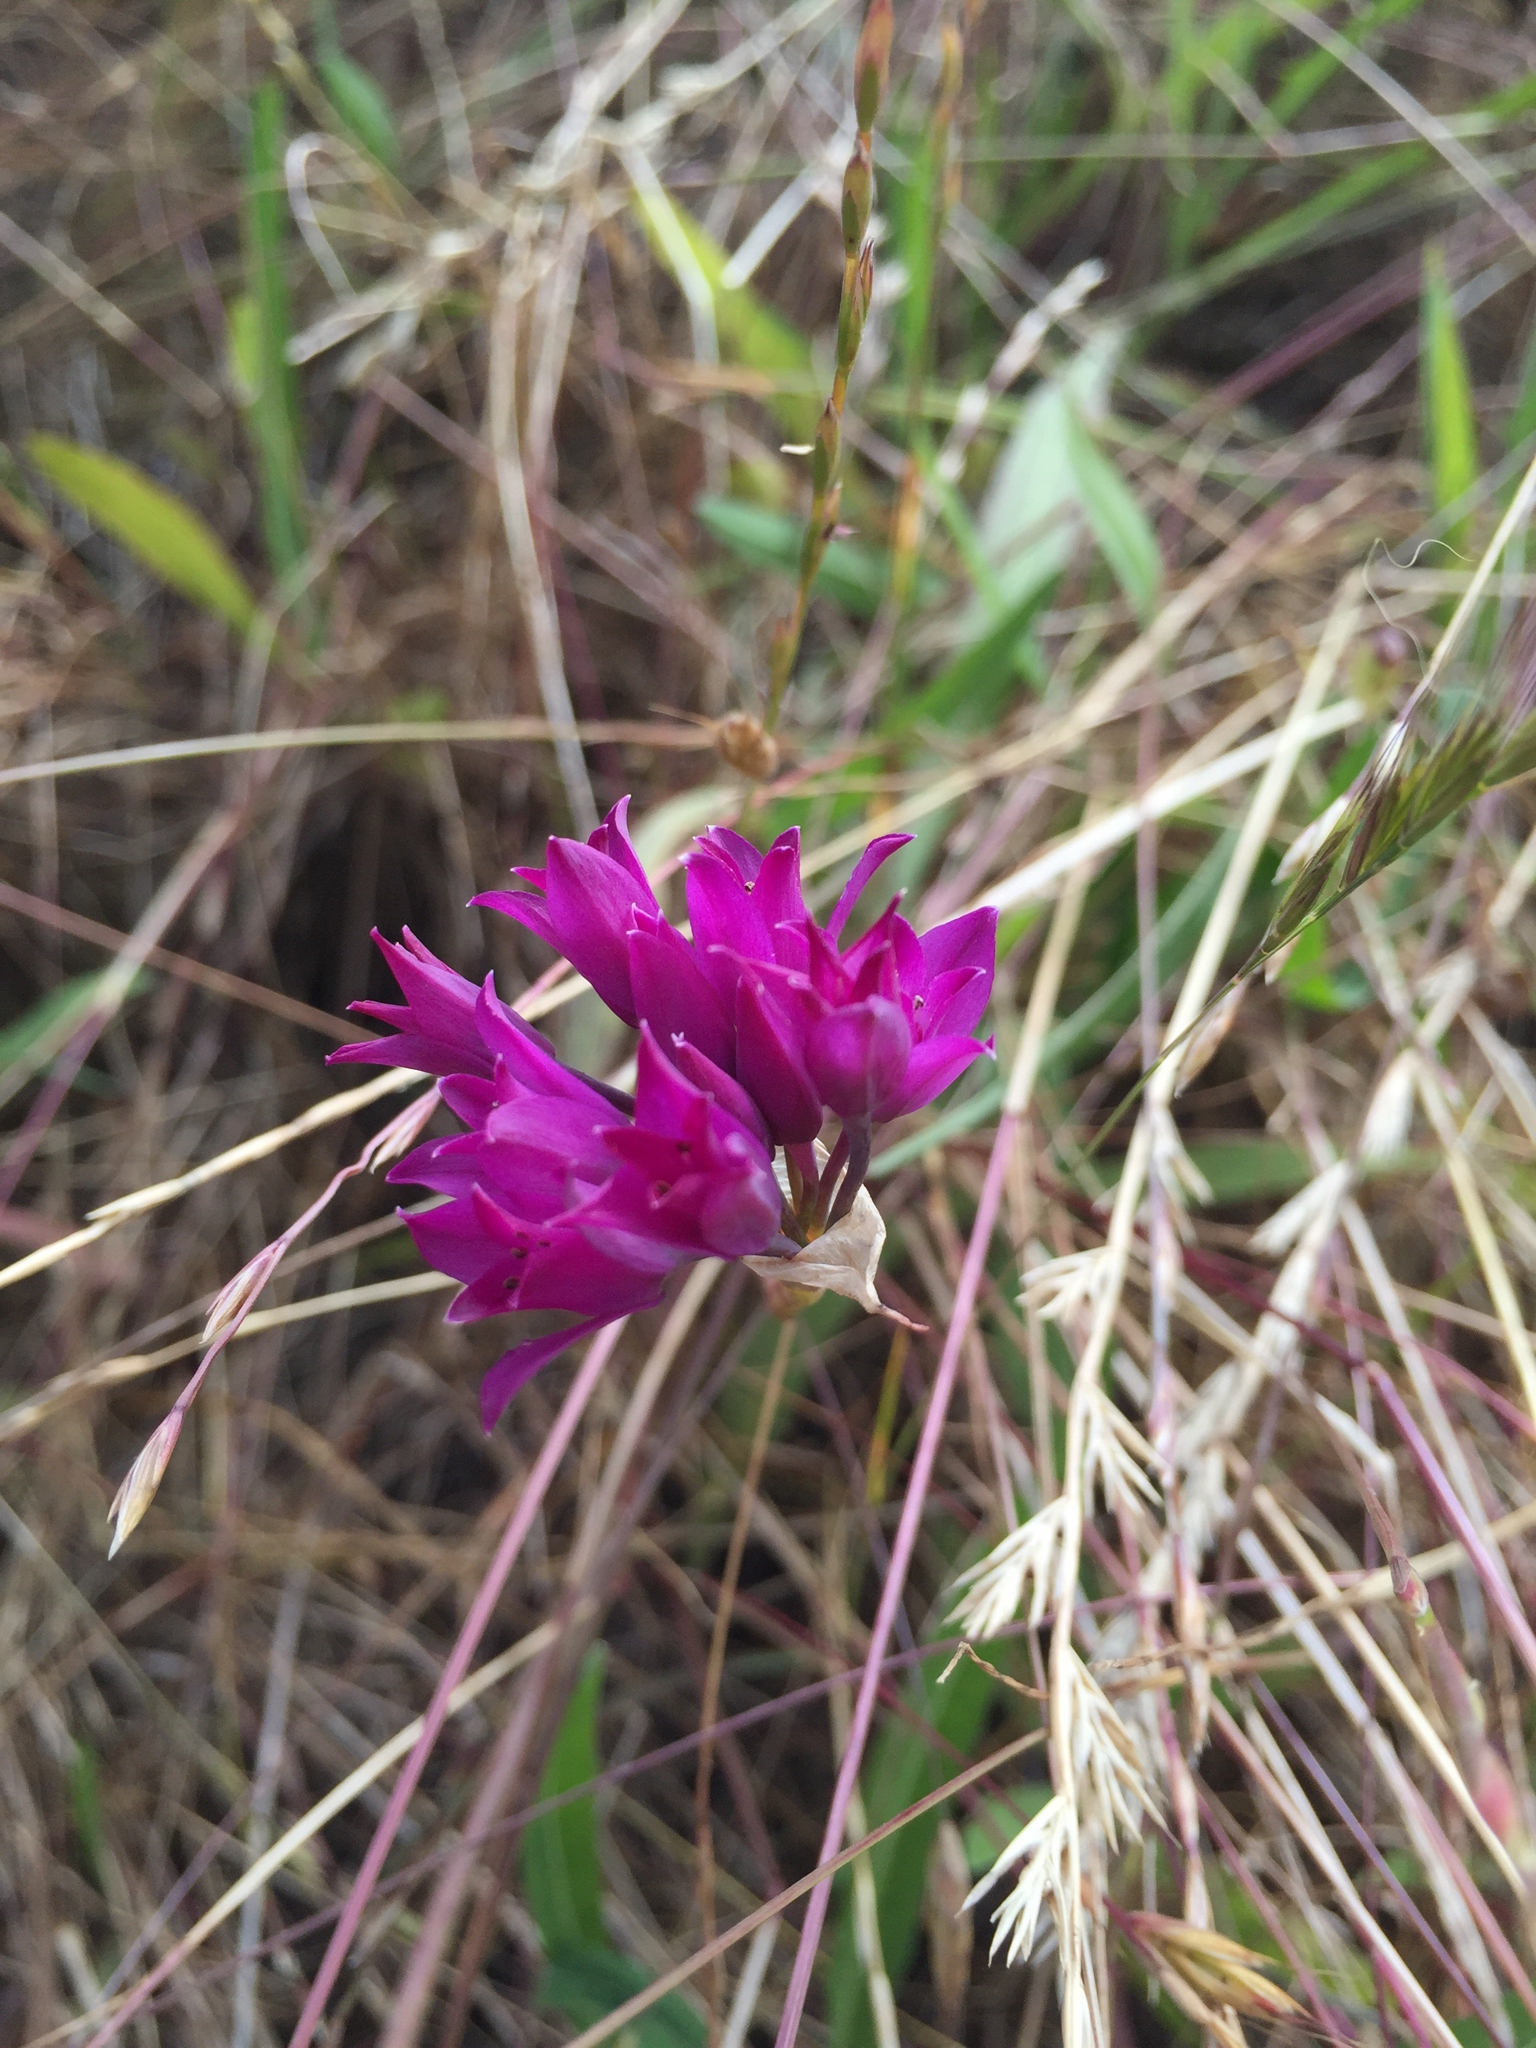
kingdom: Plantae
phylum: Tracheophyta
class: Liliopsida
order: Asparagales
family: Amaryllidaceae
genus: Allium
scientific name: Allium dichlamydeum
